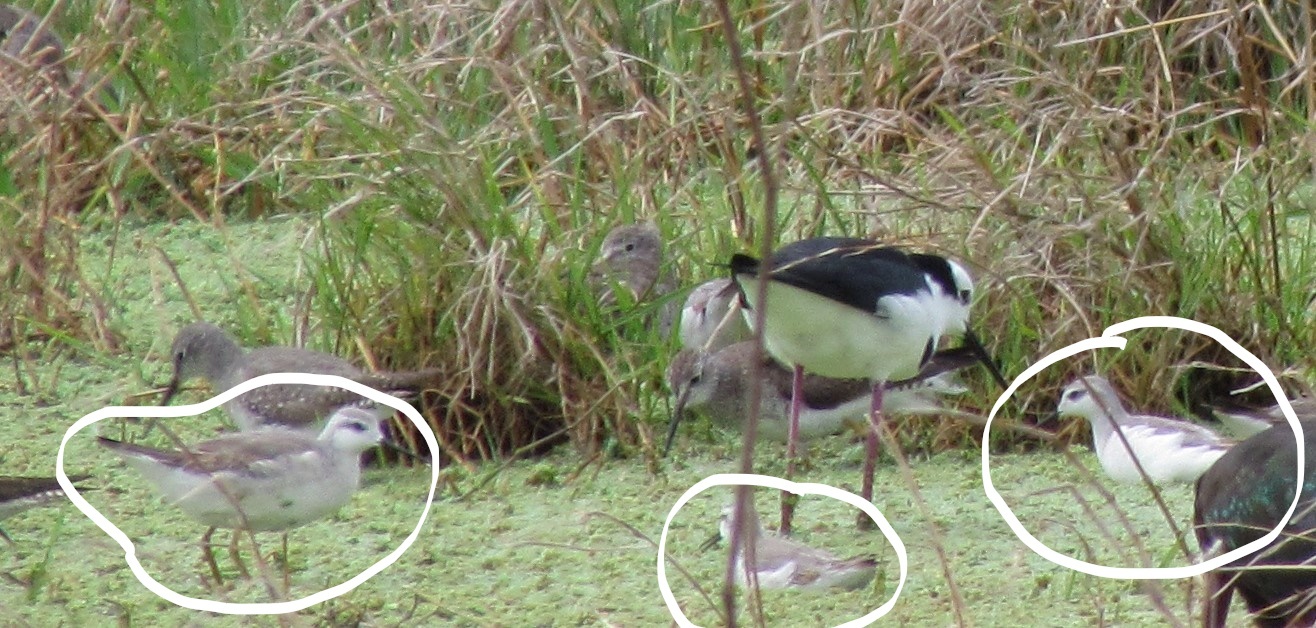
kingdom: Animalia
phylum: Chordata
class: Aves
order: Charadriiformes
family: Scolopacidae
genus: Phalaropus
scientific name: Phalaropus tricolor
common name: Wilson's phalarope
